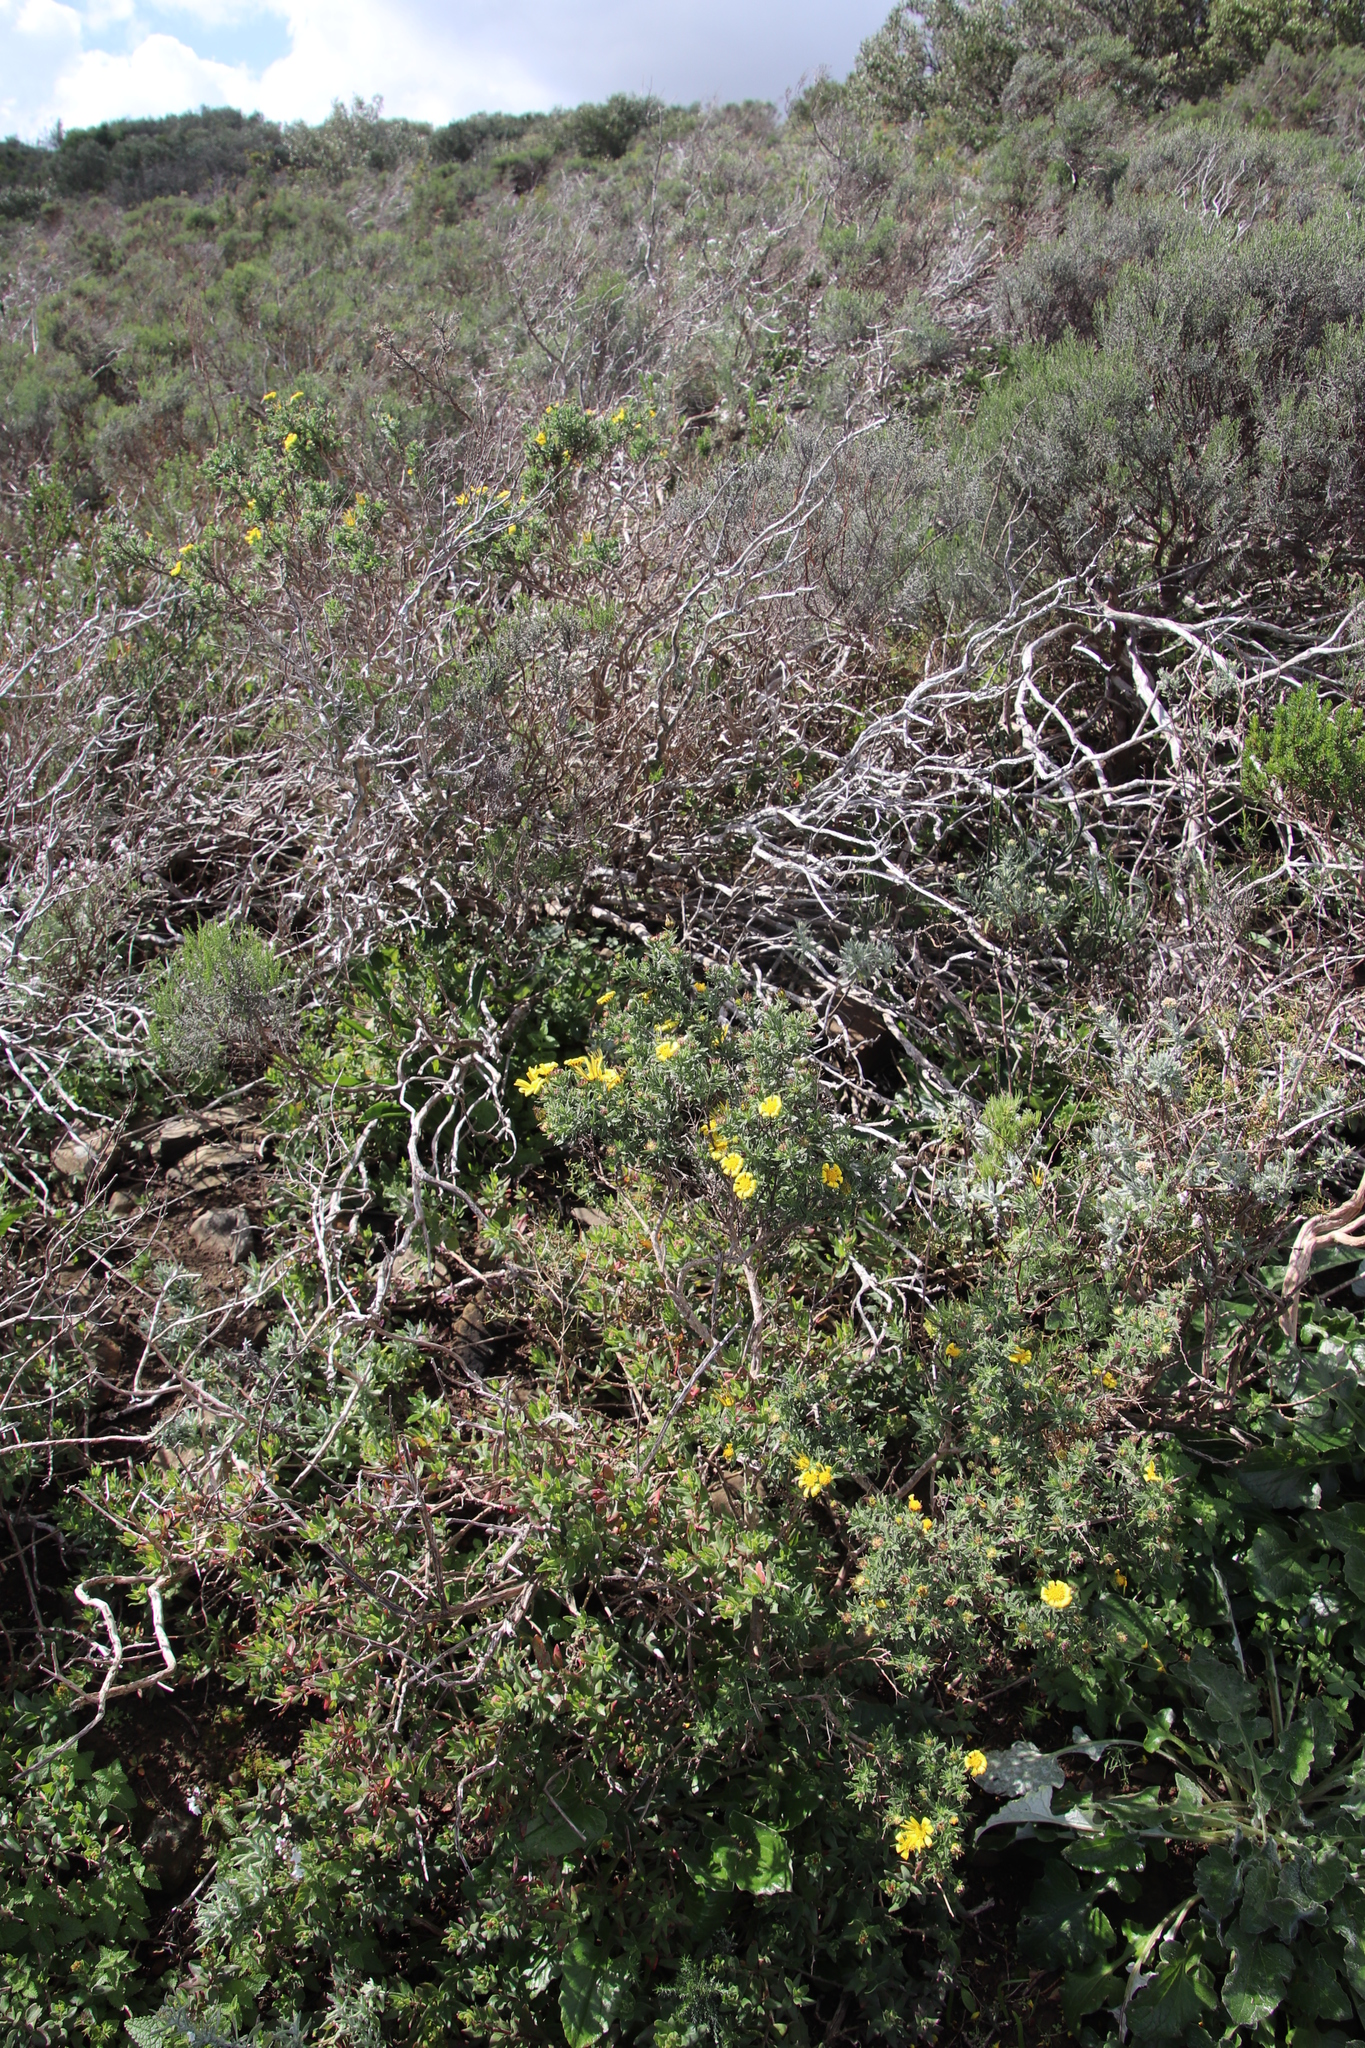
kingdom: Plantae
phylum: Tracheophyta
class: Magnoliopsida
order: Asterales
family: Asteraceae
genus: Osteospermum
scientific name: Osteospermum spinosum
